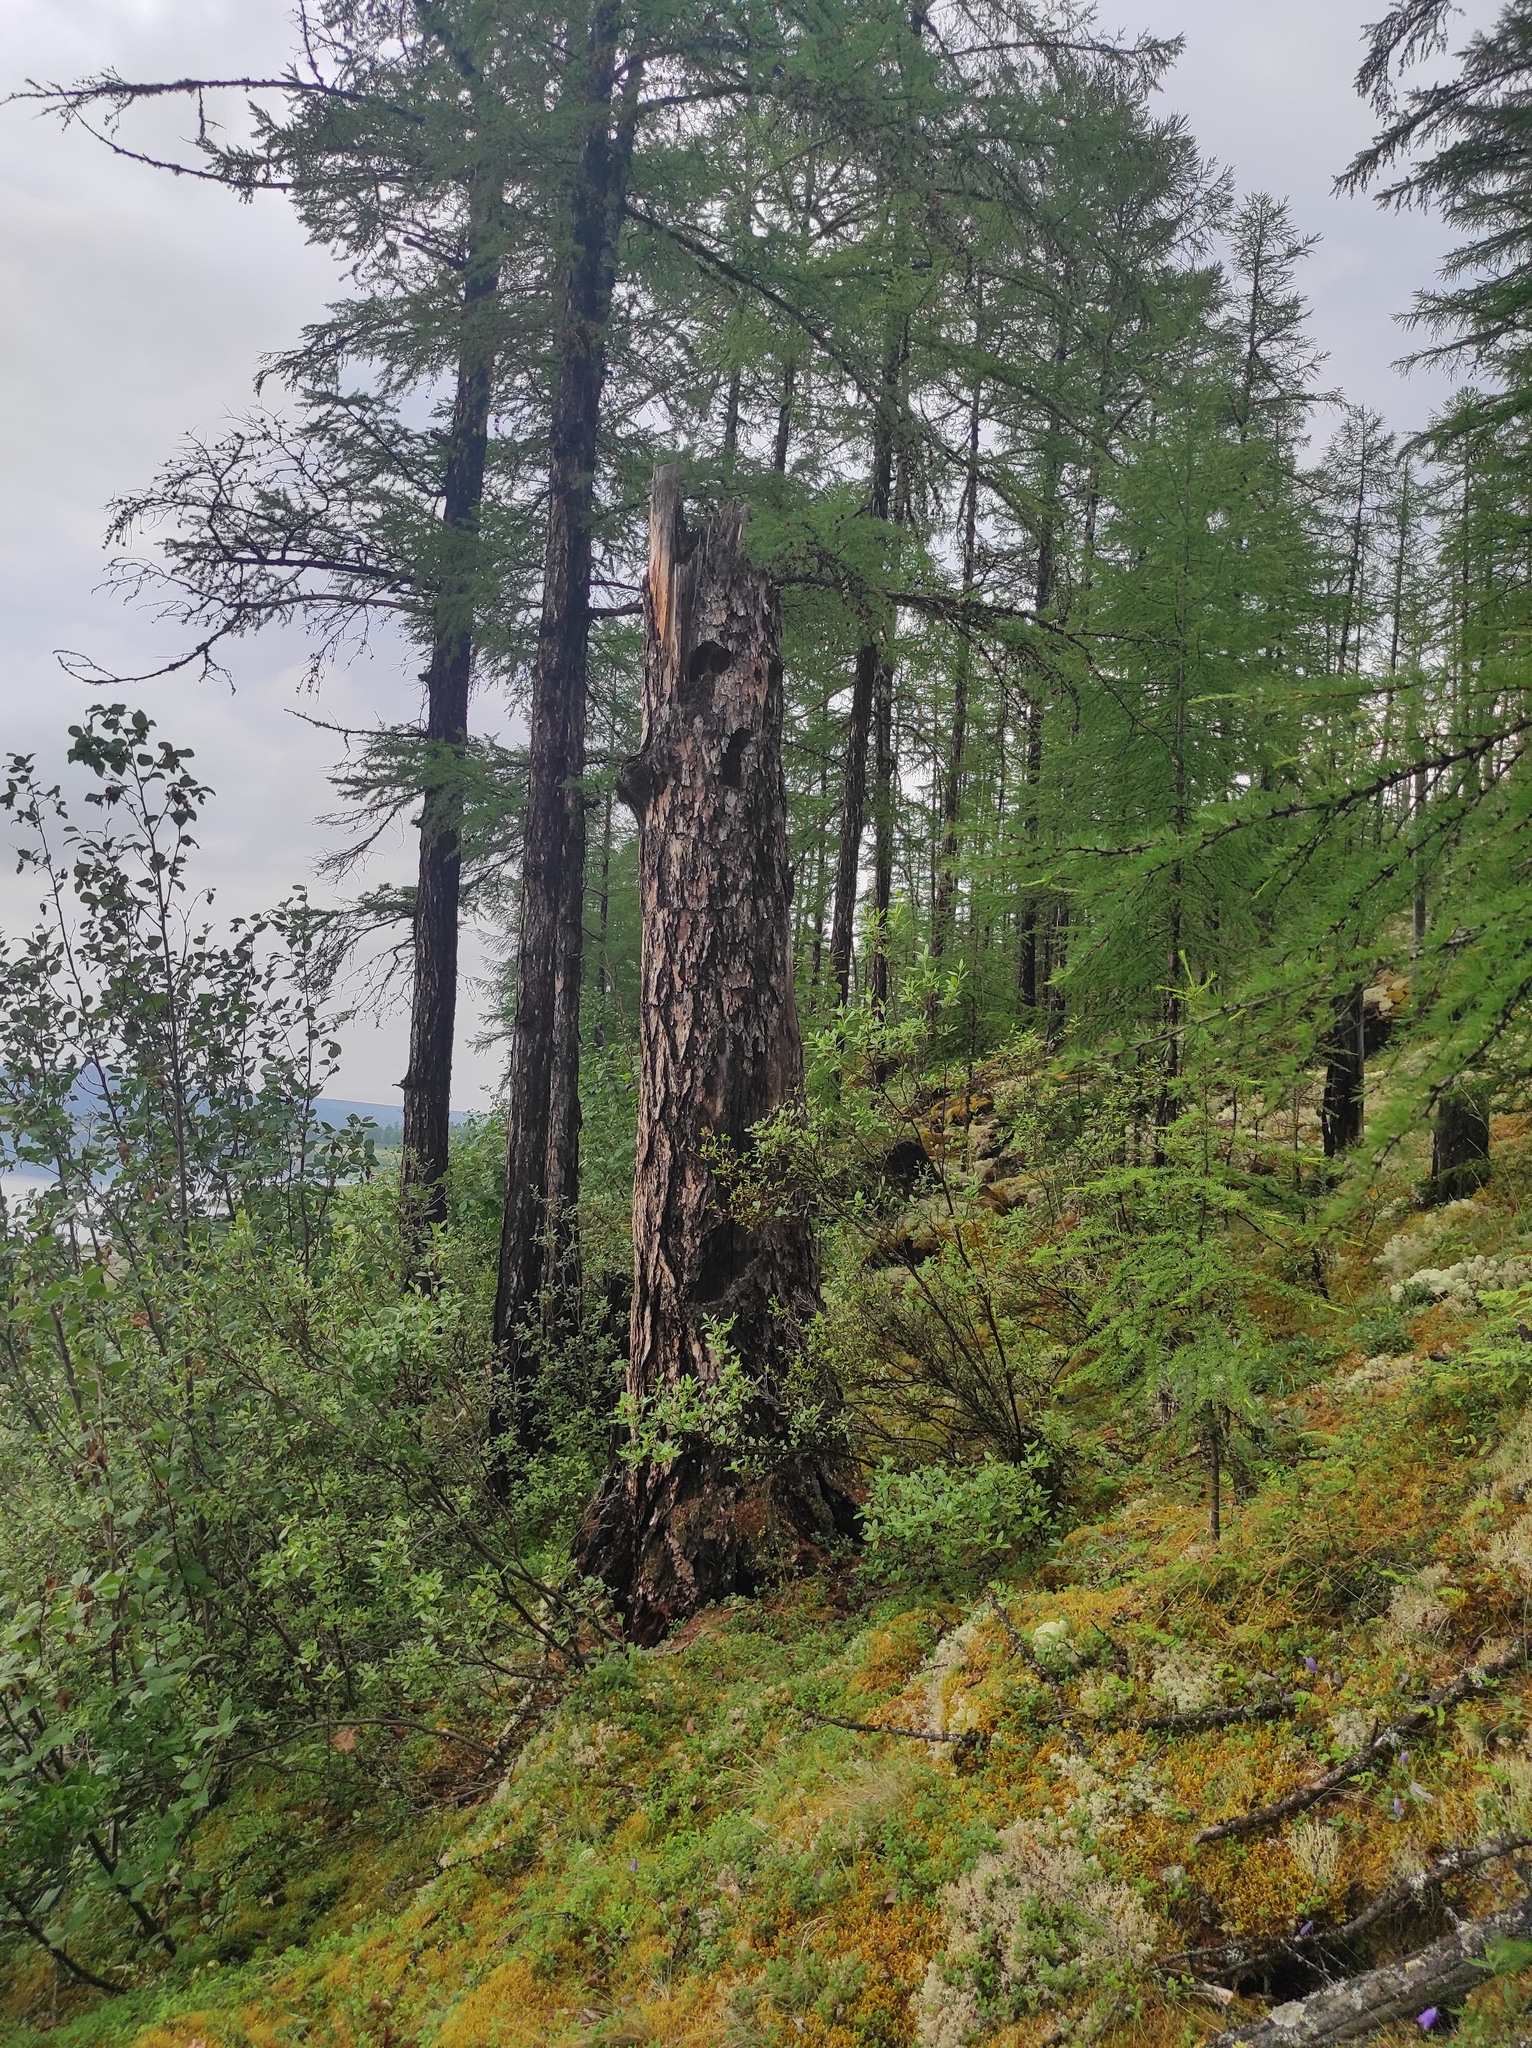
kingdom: Plantae
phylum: Tracheophyta
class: Pinopsida
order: Pinales
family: Pinaceae
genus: Larix
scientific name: Larix gmelinii
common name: Dahurian larch
